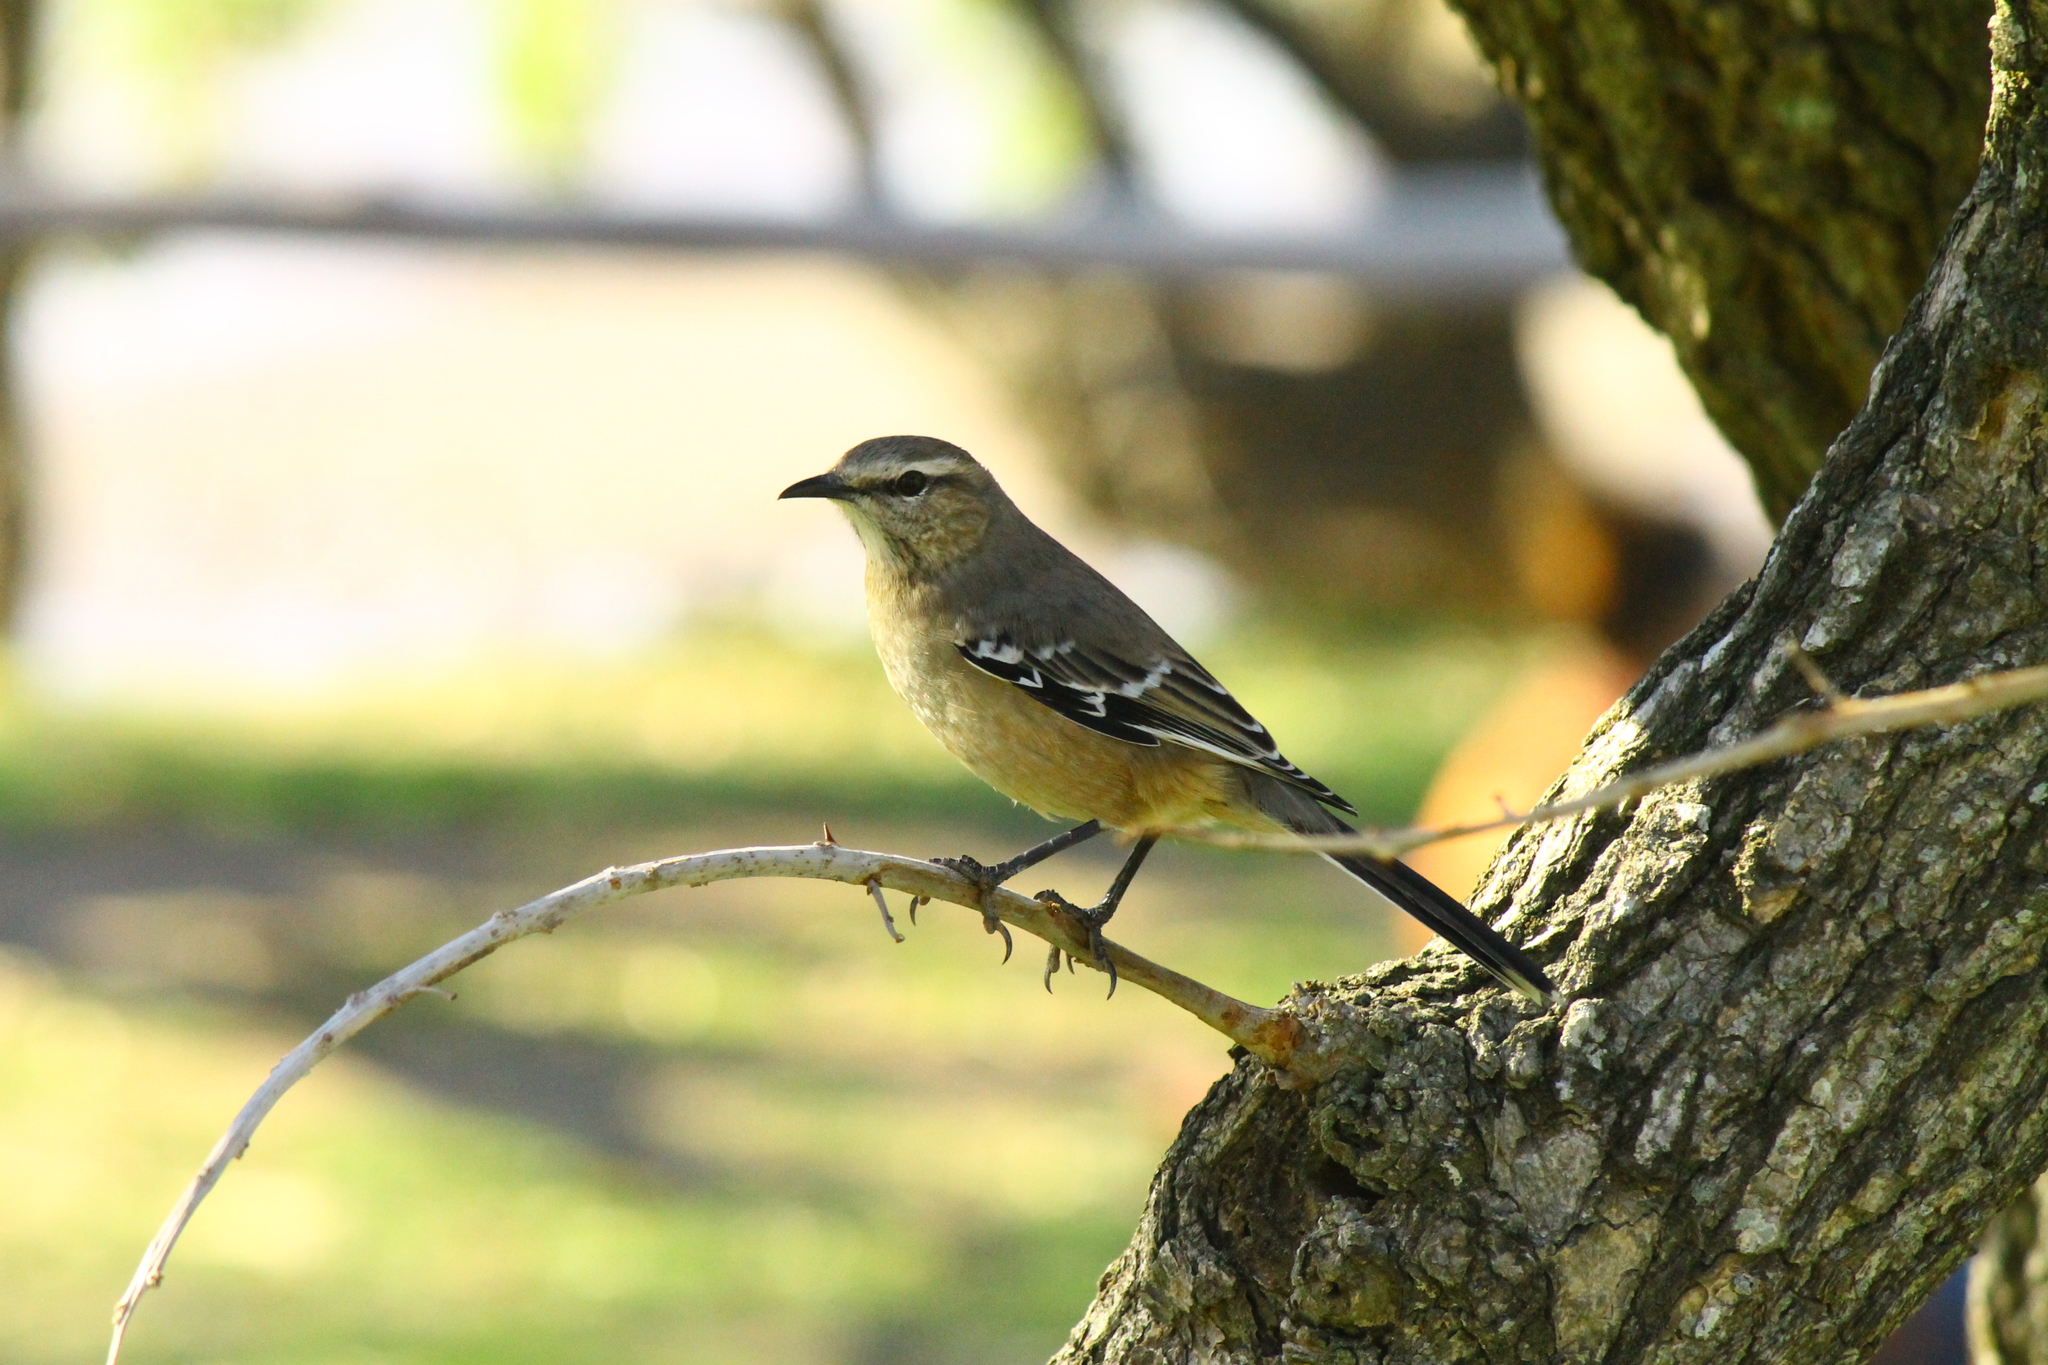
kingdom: Animalia
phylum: Chordata
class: Aves
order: Passeriformes
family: Mimidae
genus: Mimus
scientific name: Mimus patagonicus
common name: Patagonian mockingbird
